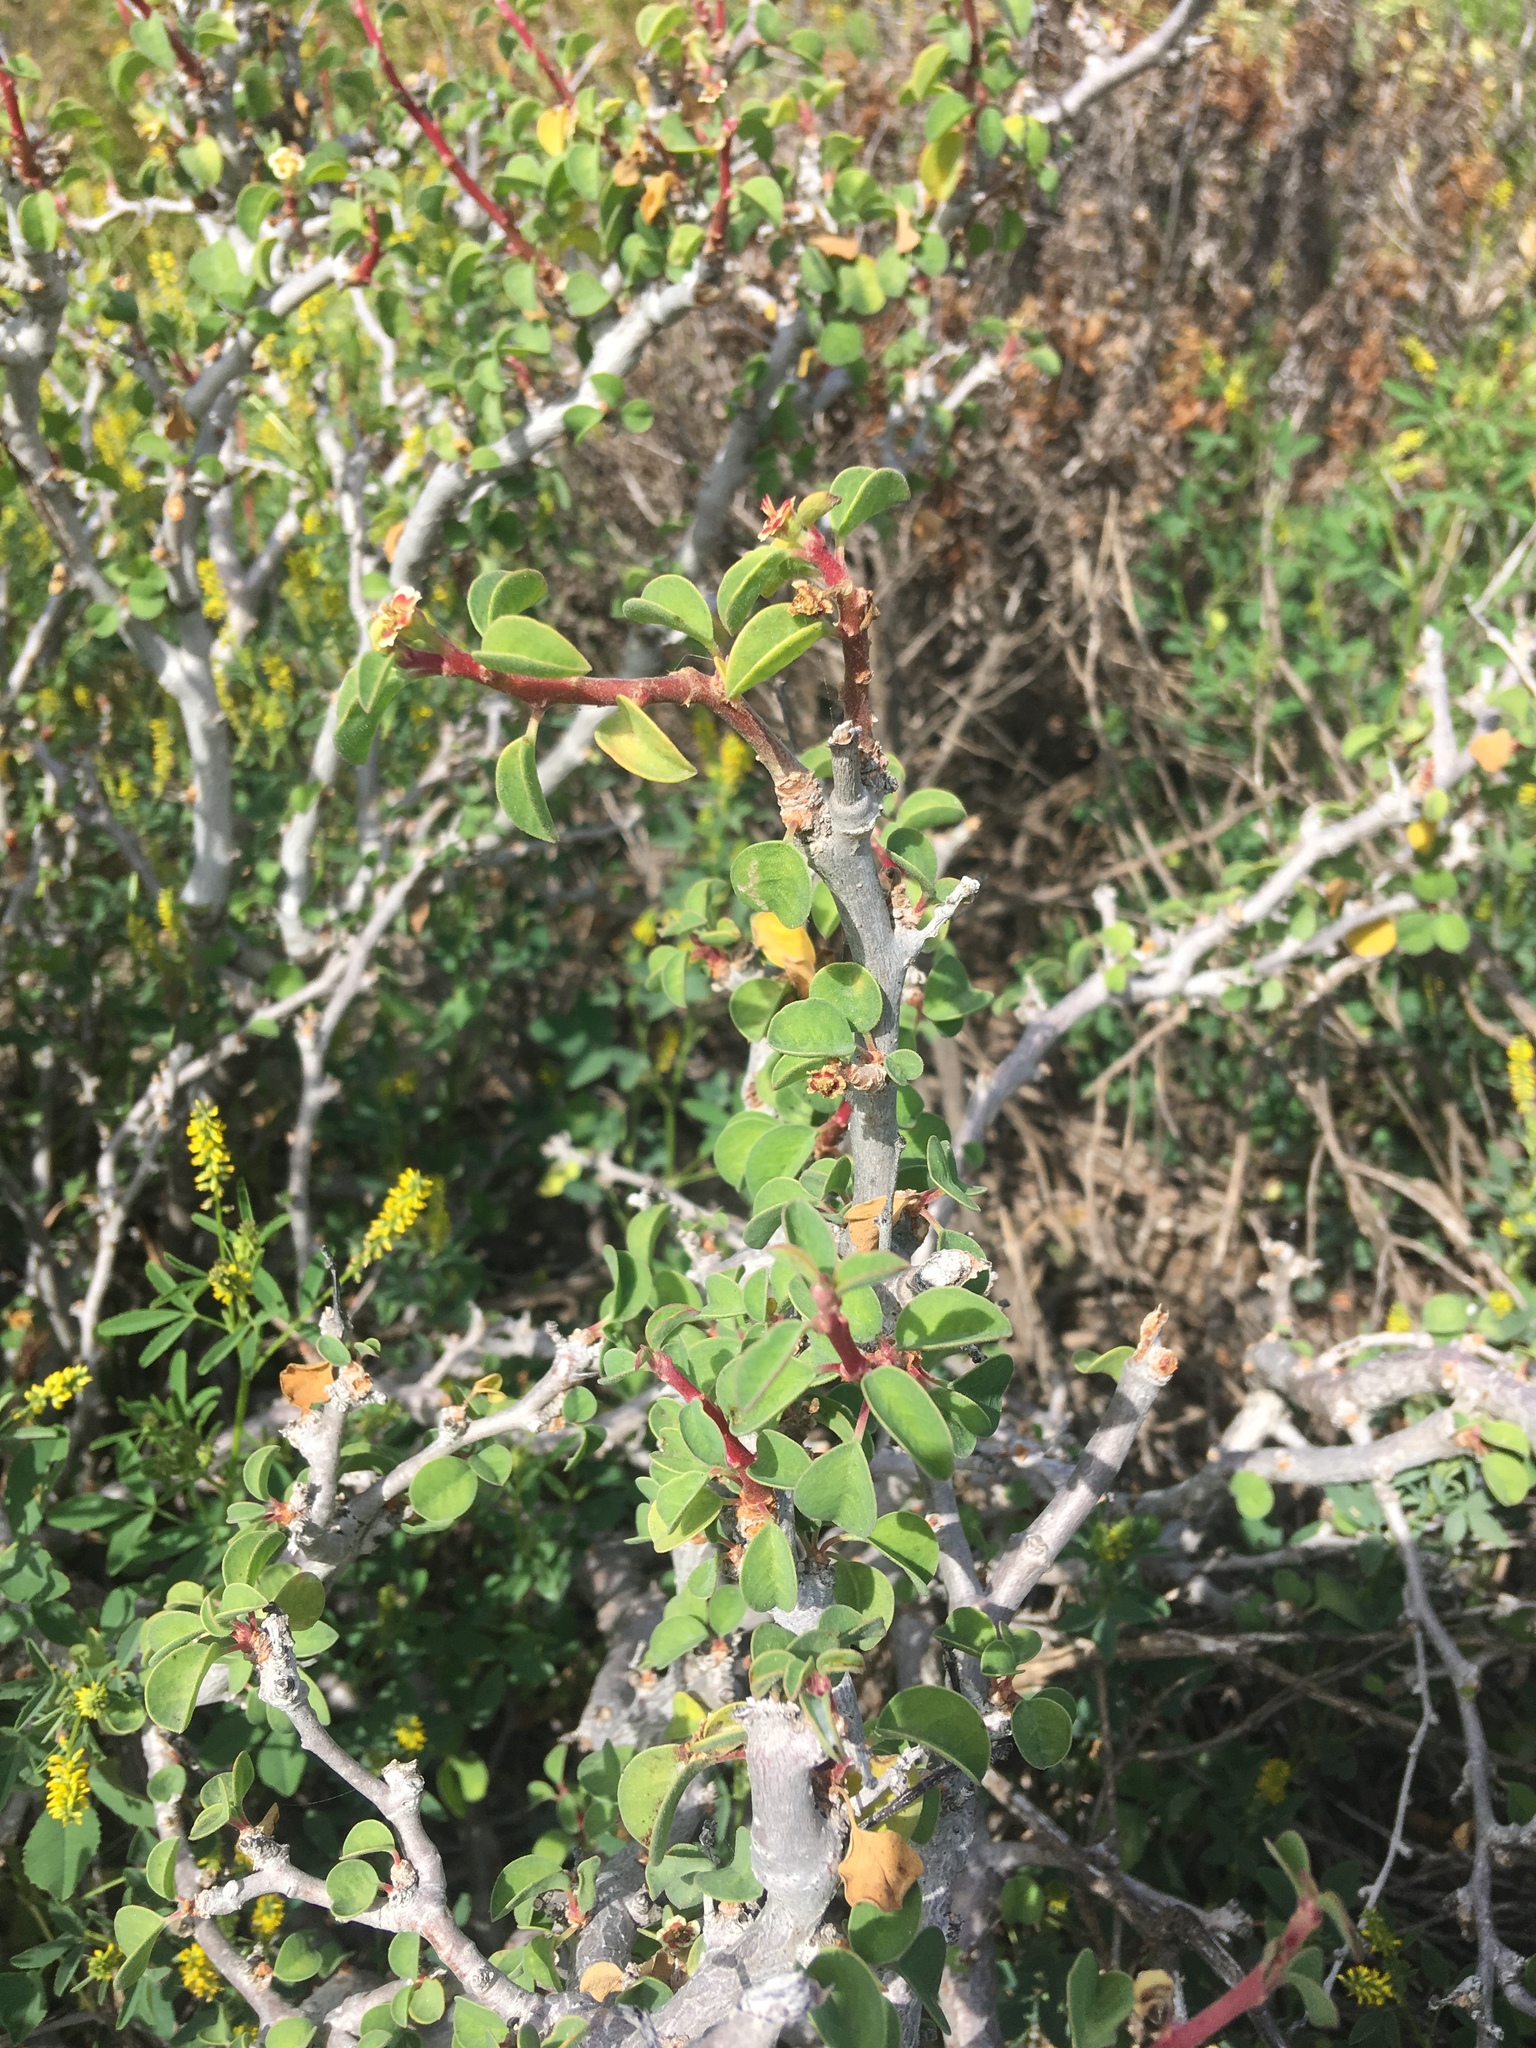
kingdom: Plantae
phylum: Tracheophyta
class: Magnoliopsida
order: Malpighiales
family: Euphorbiaceae
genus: Euphorbia
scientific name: Euphorbia misera
